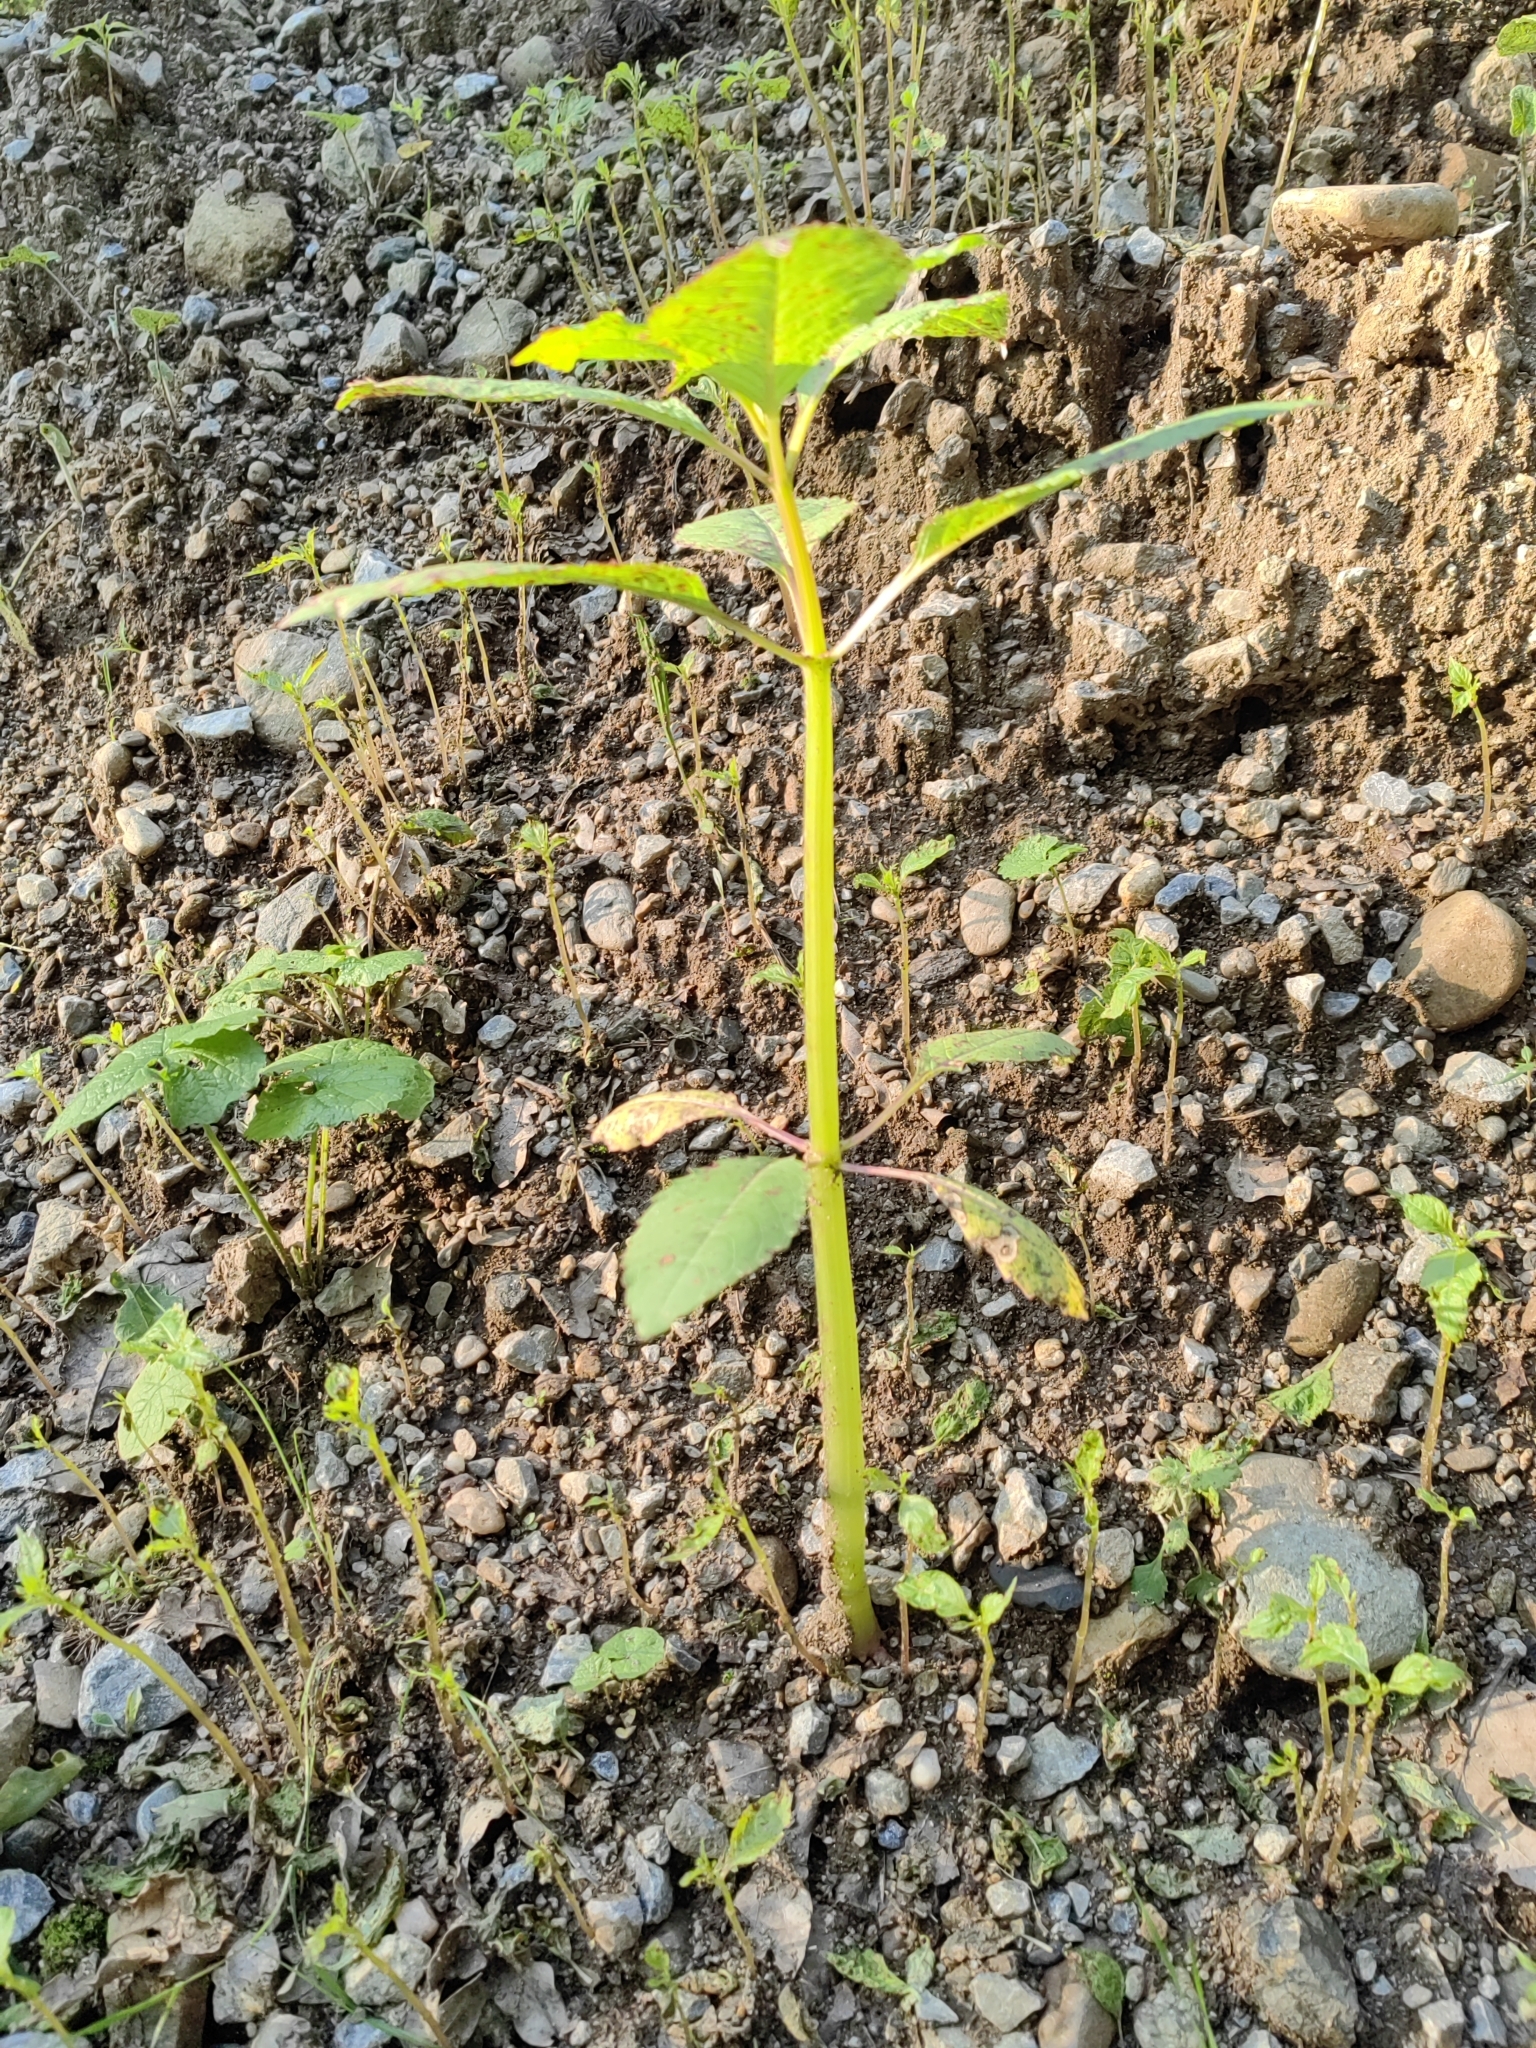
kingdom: Plantae
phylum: Tracheophyta
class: Magnoliopsida
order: Ericales
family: Balsaminaceae
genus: Impatiens
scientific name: Impatiens glandulifera
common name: Himalayan balsam
